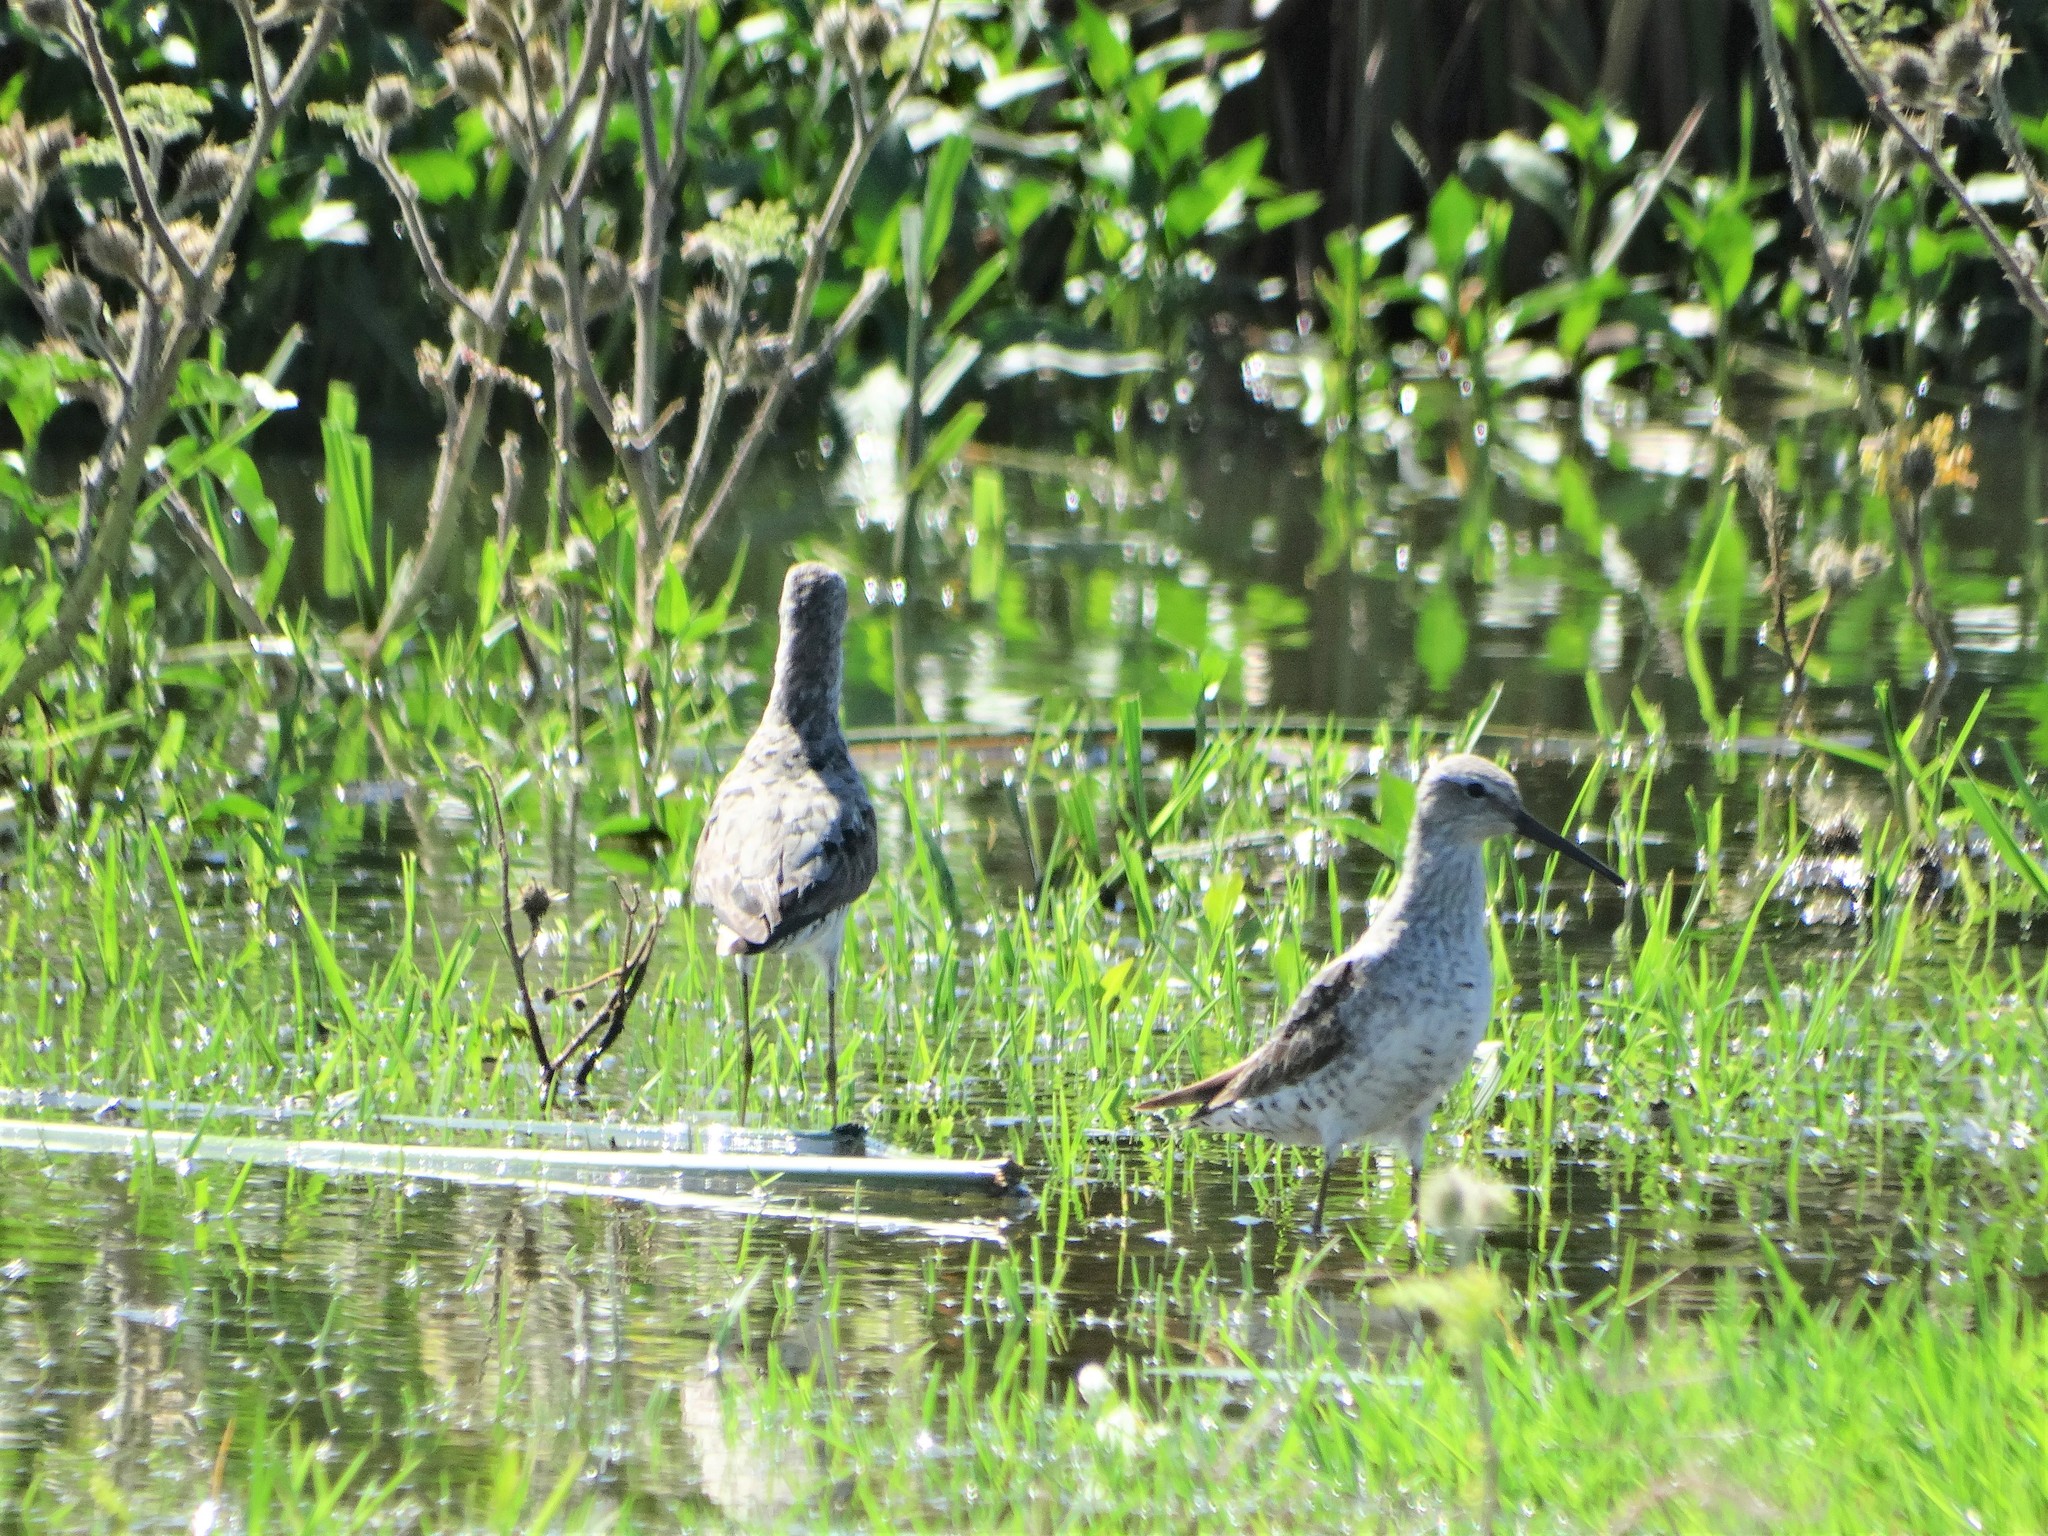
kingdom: Animalia
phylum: Chordata
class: Aves
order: Charadriiformes
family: Scolopacidae
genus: Calidris
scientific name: Calidris himantopus
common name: Stilt sandpiper
